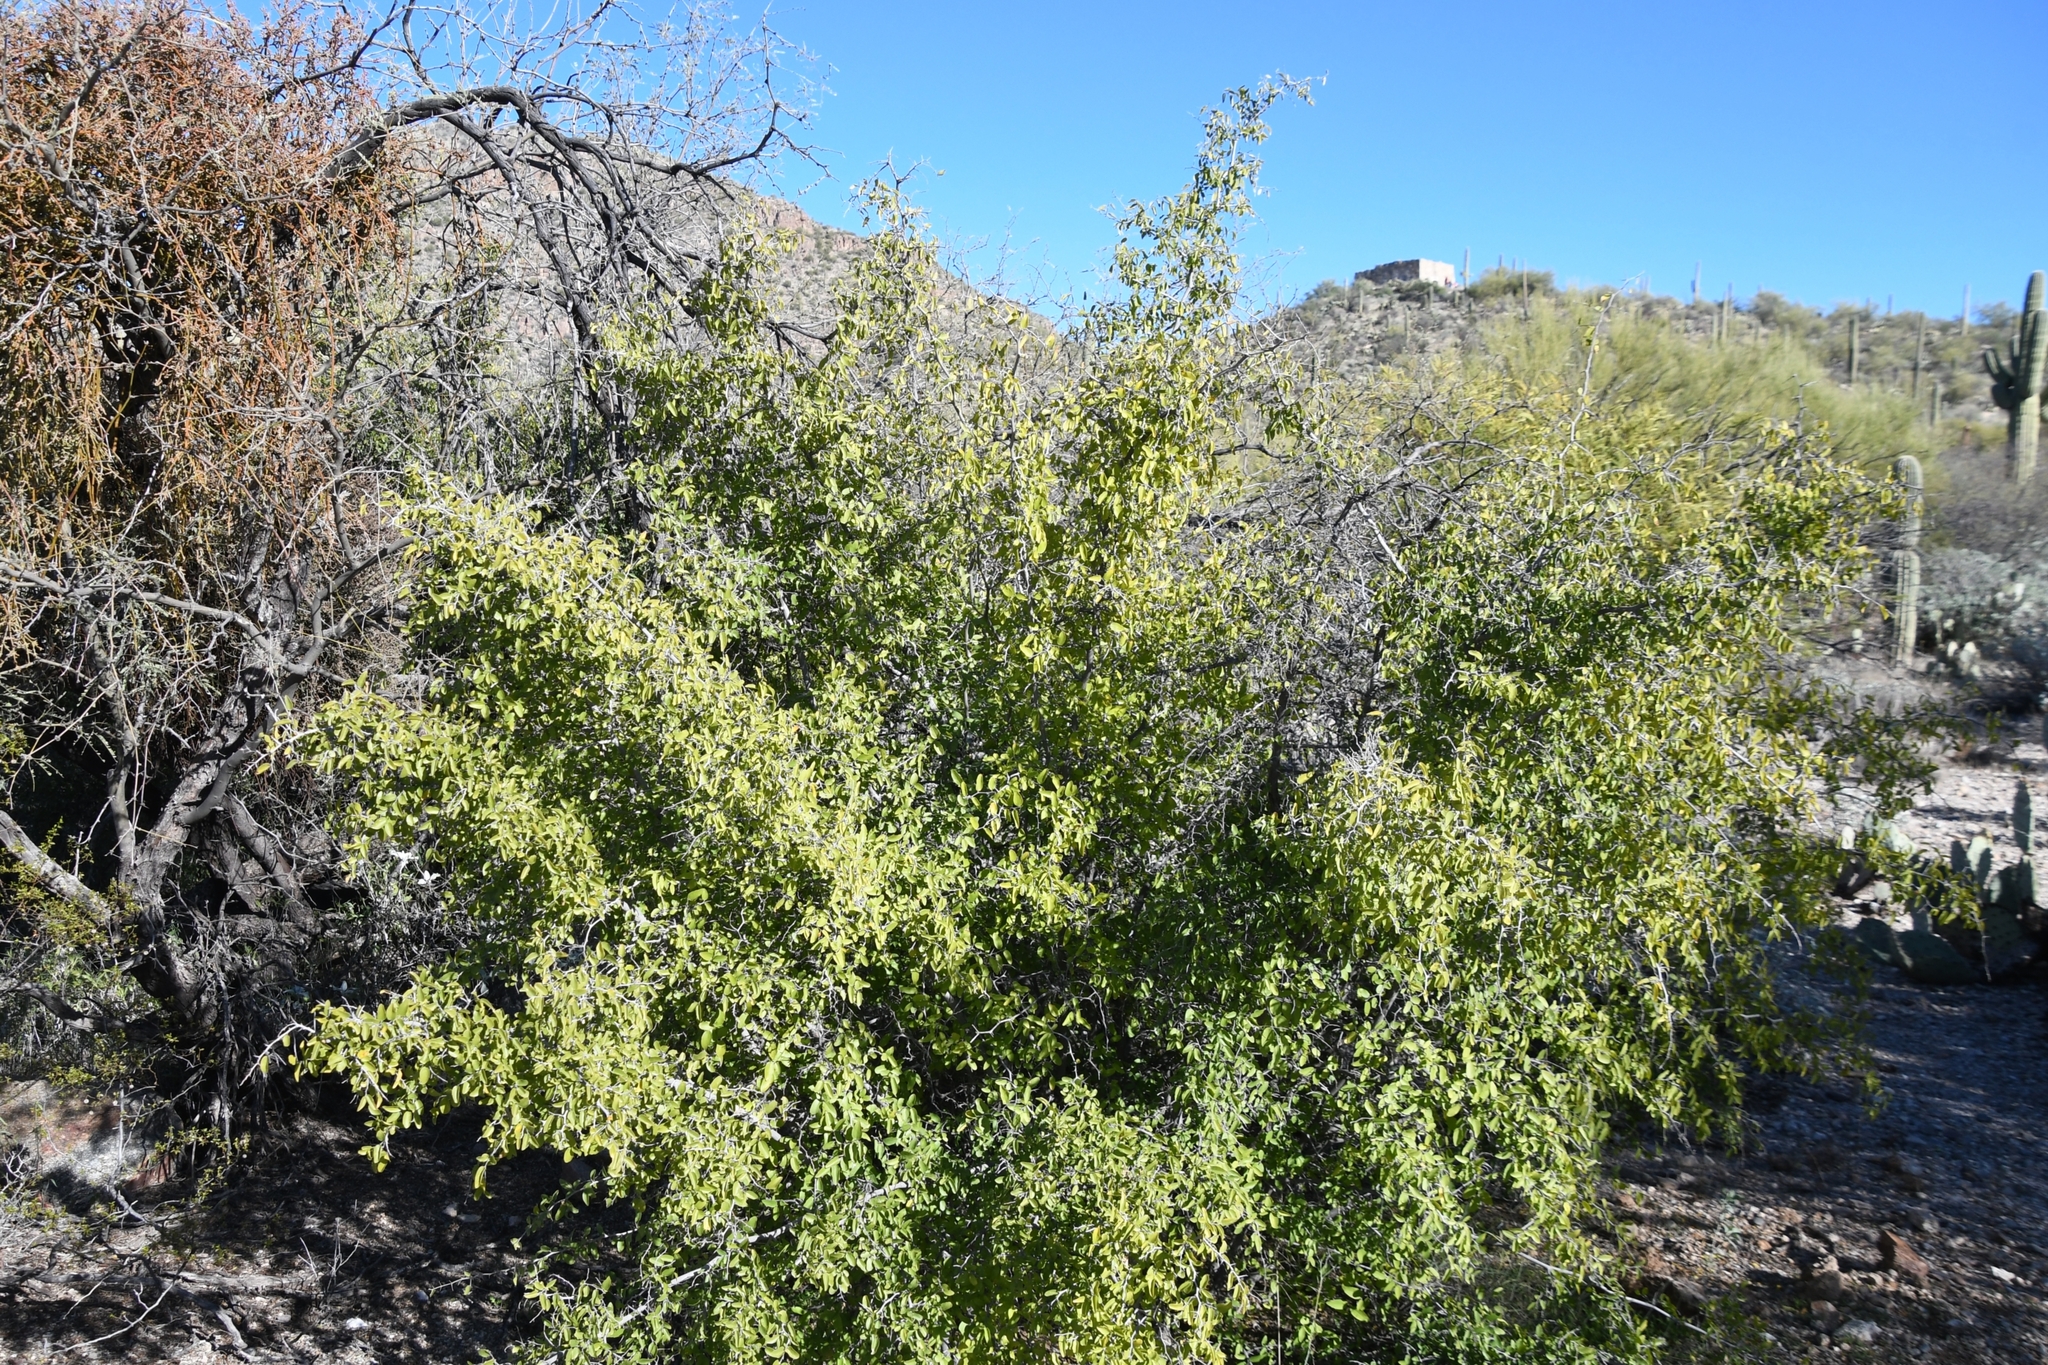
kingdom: Plantae
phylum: Tracheophyta
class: Magnoliopsida
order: Rosales
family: Cannabaceae
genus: Celtis
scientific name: Celtis pallida
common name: Desert hackberry
